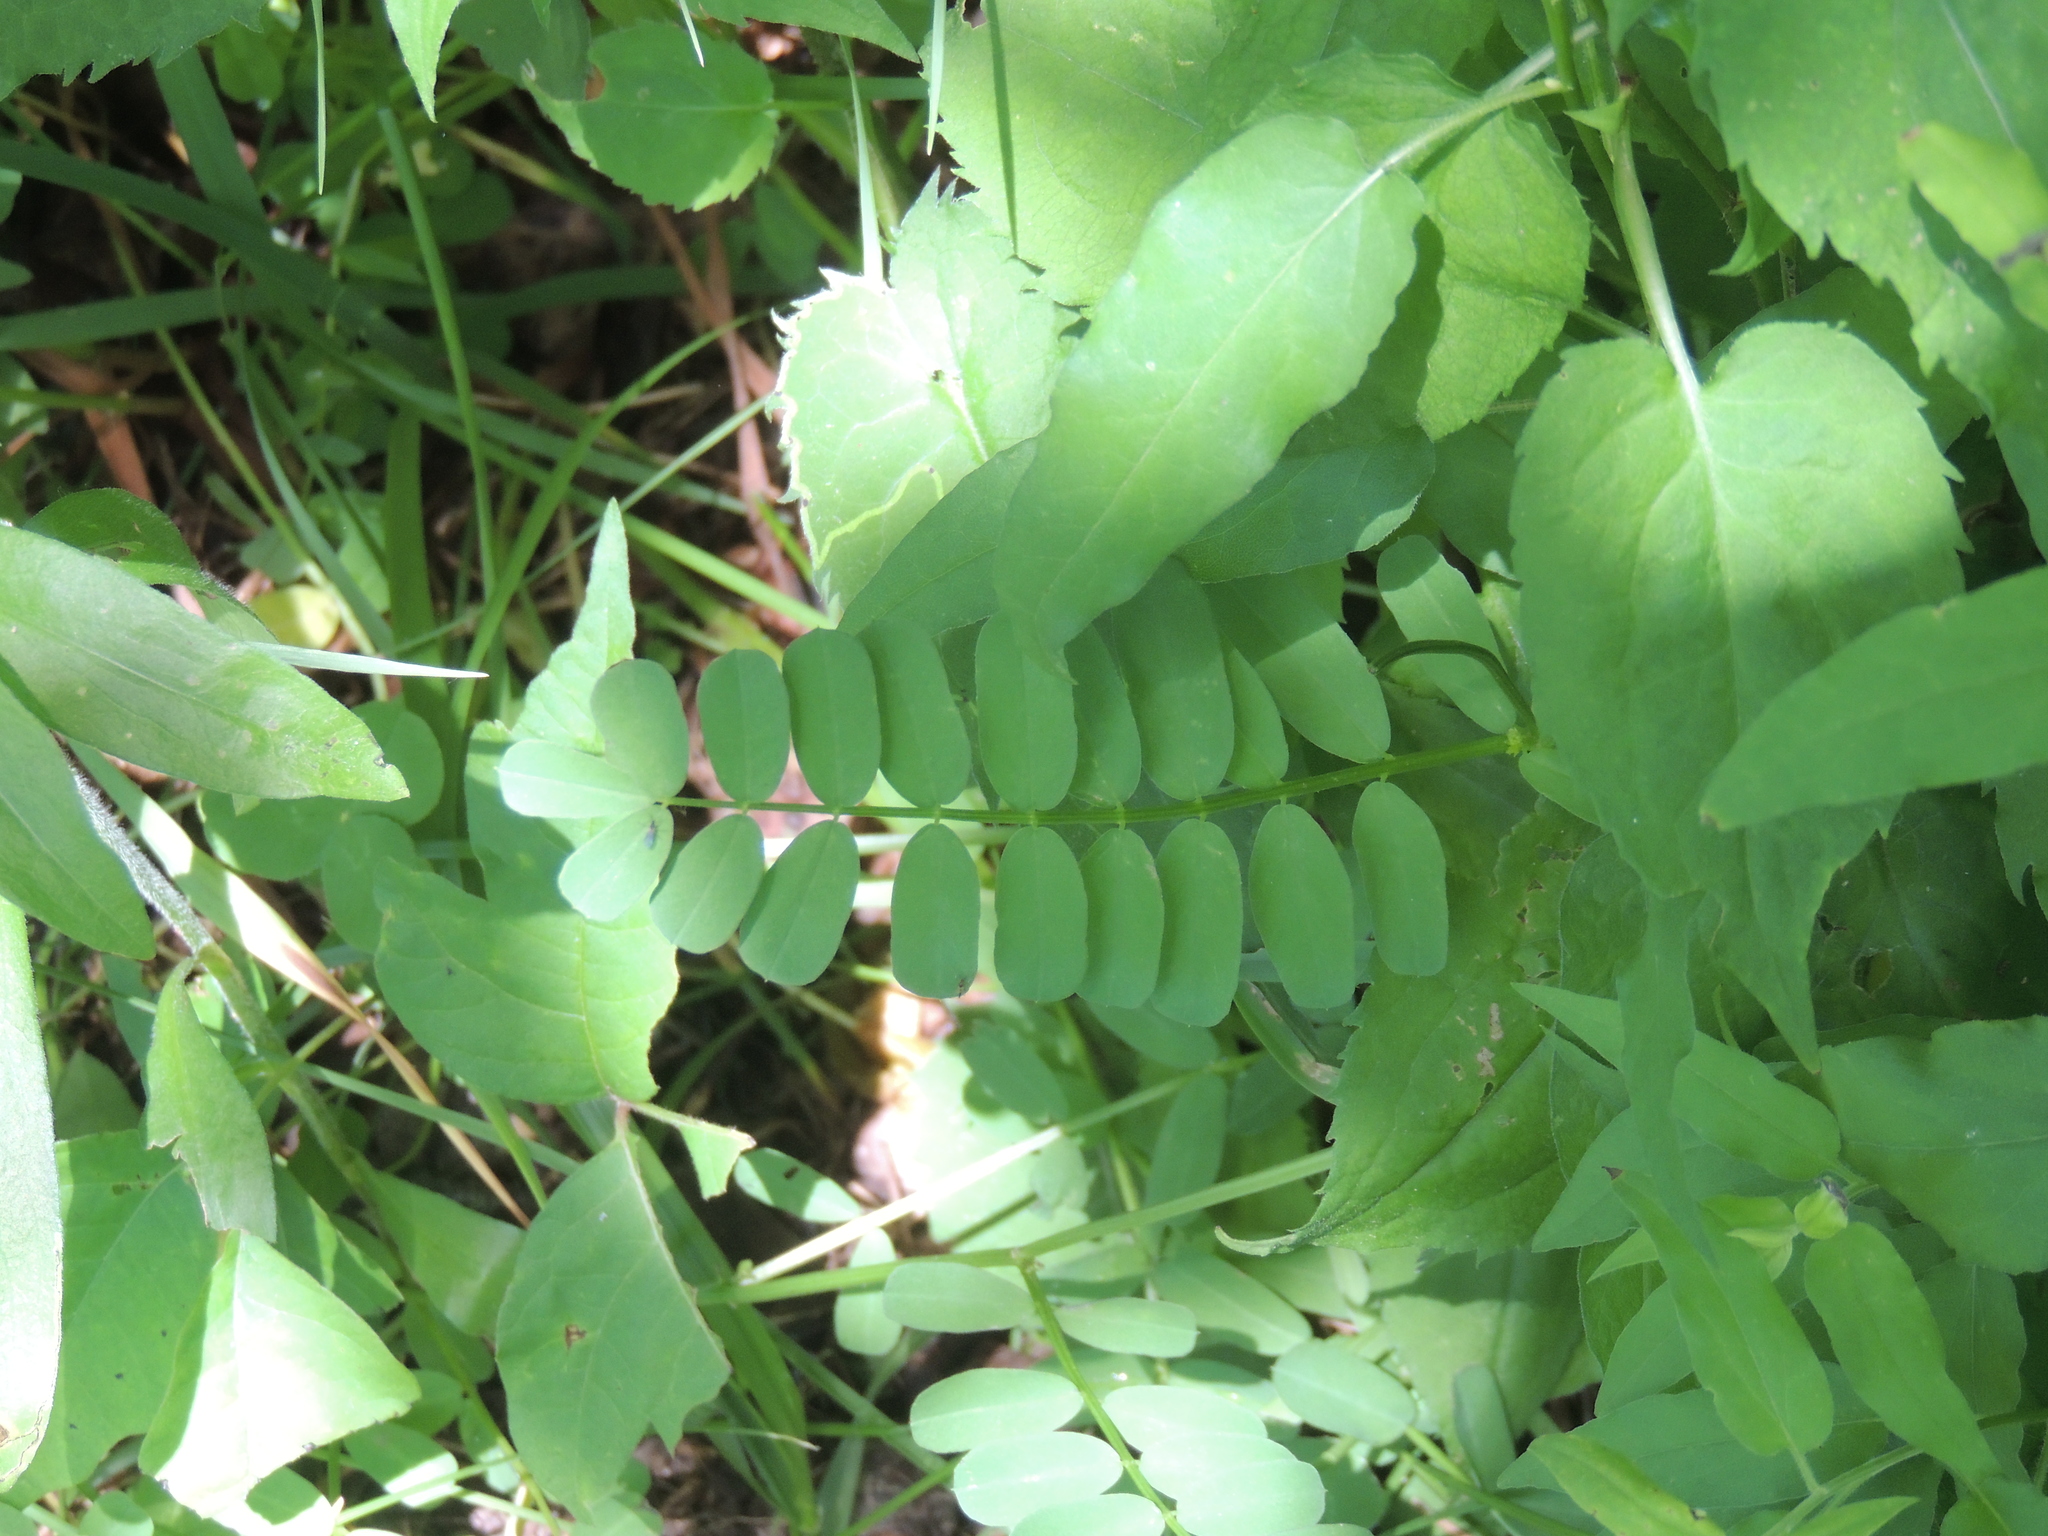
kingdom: Plantae
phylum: Tracheophyta
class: Magnoliopsida
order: Fabales
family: Fabaceae
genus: Coronilla
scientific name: Coronilla varia
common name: Crownvetch
